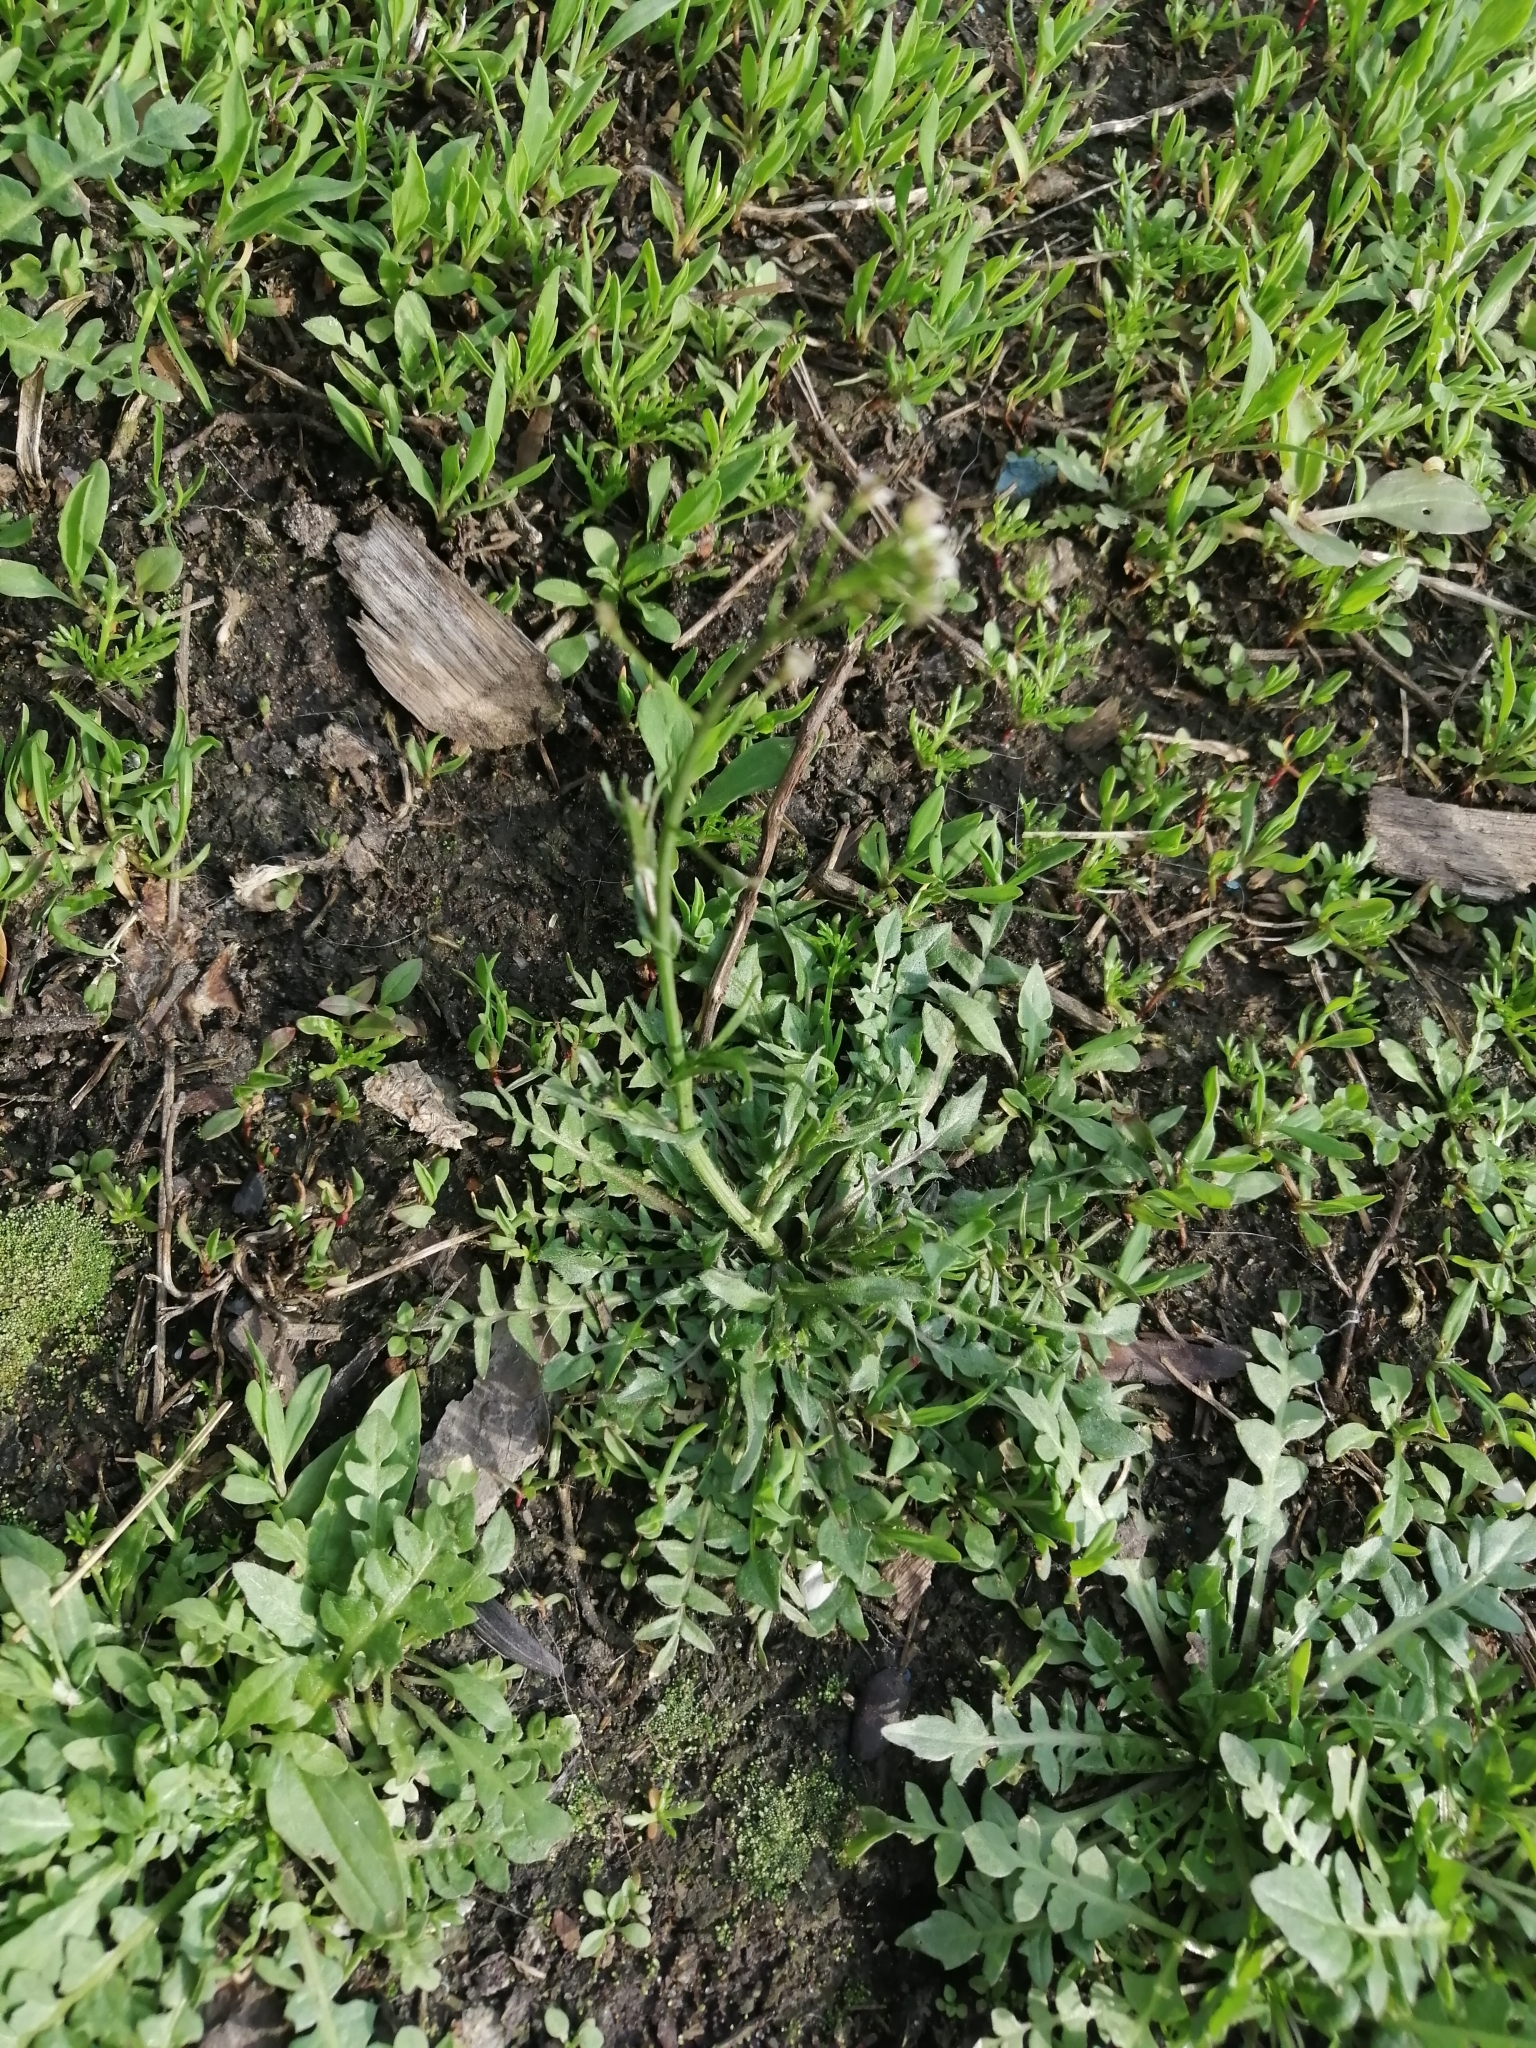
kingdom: Plantae
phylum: Tracheophyta
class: Magnoliopsida
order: Brassicales
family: Brassicaceae
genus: Capsella
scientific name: Capsella bursa-pastoris
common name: Shepherd's purse
